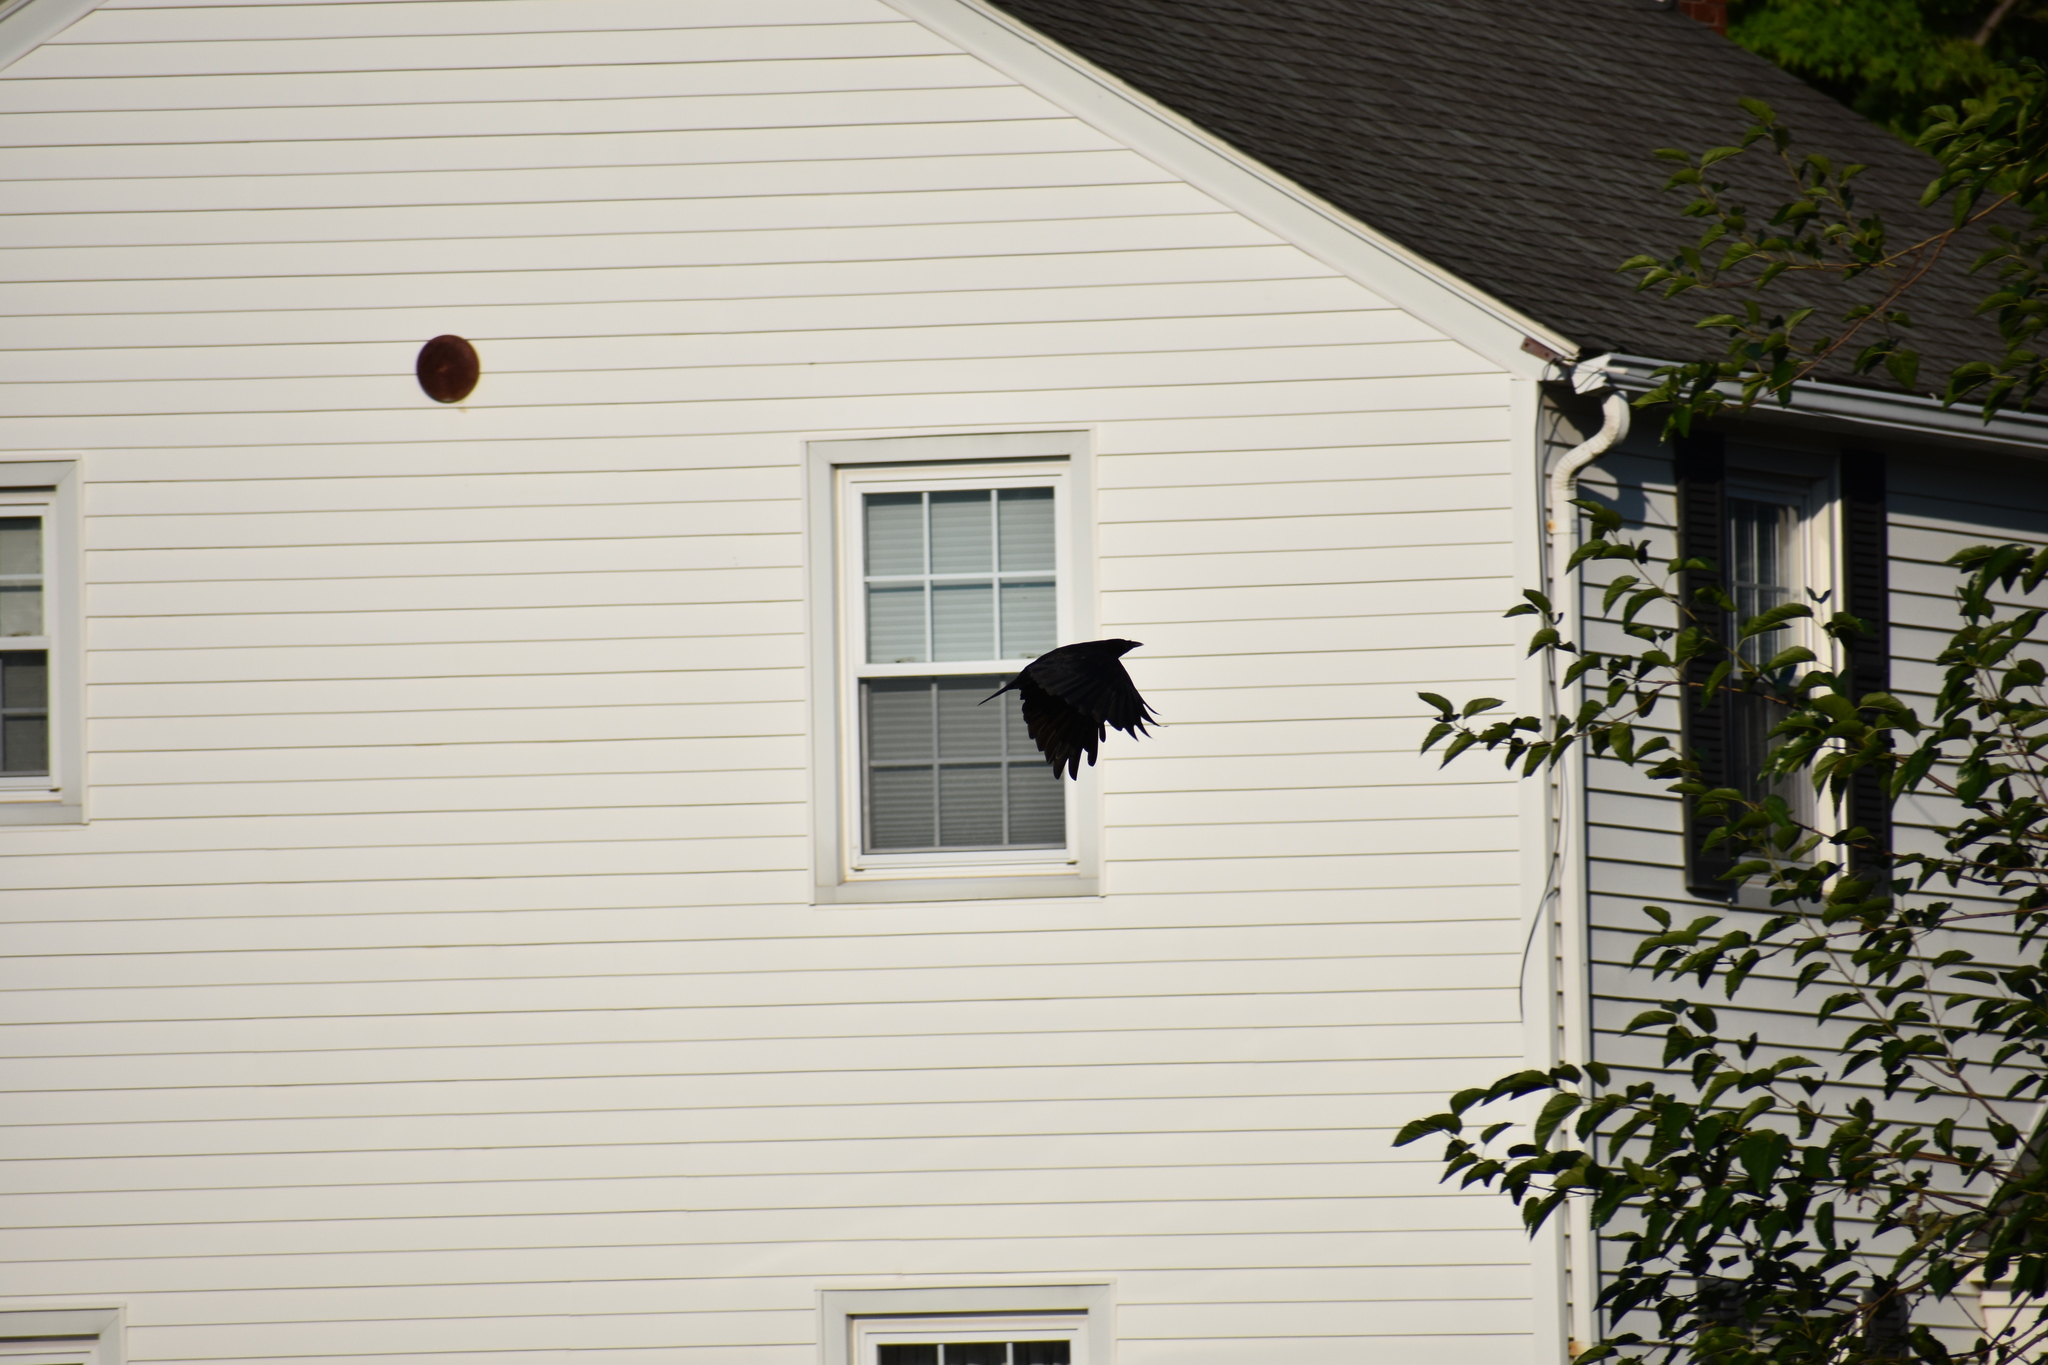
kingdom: Animalia
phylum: Chordata
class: Aves
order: Passeriformes
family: Corvidae
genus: Corvus
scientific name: Corvus brachyrhynchos
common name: American crow
